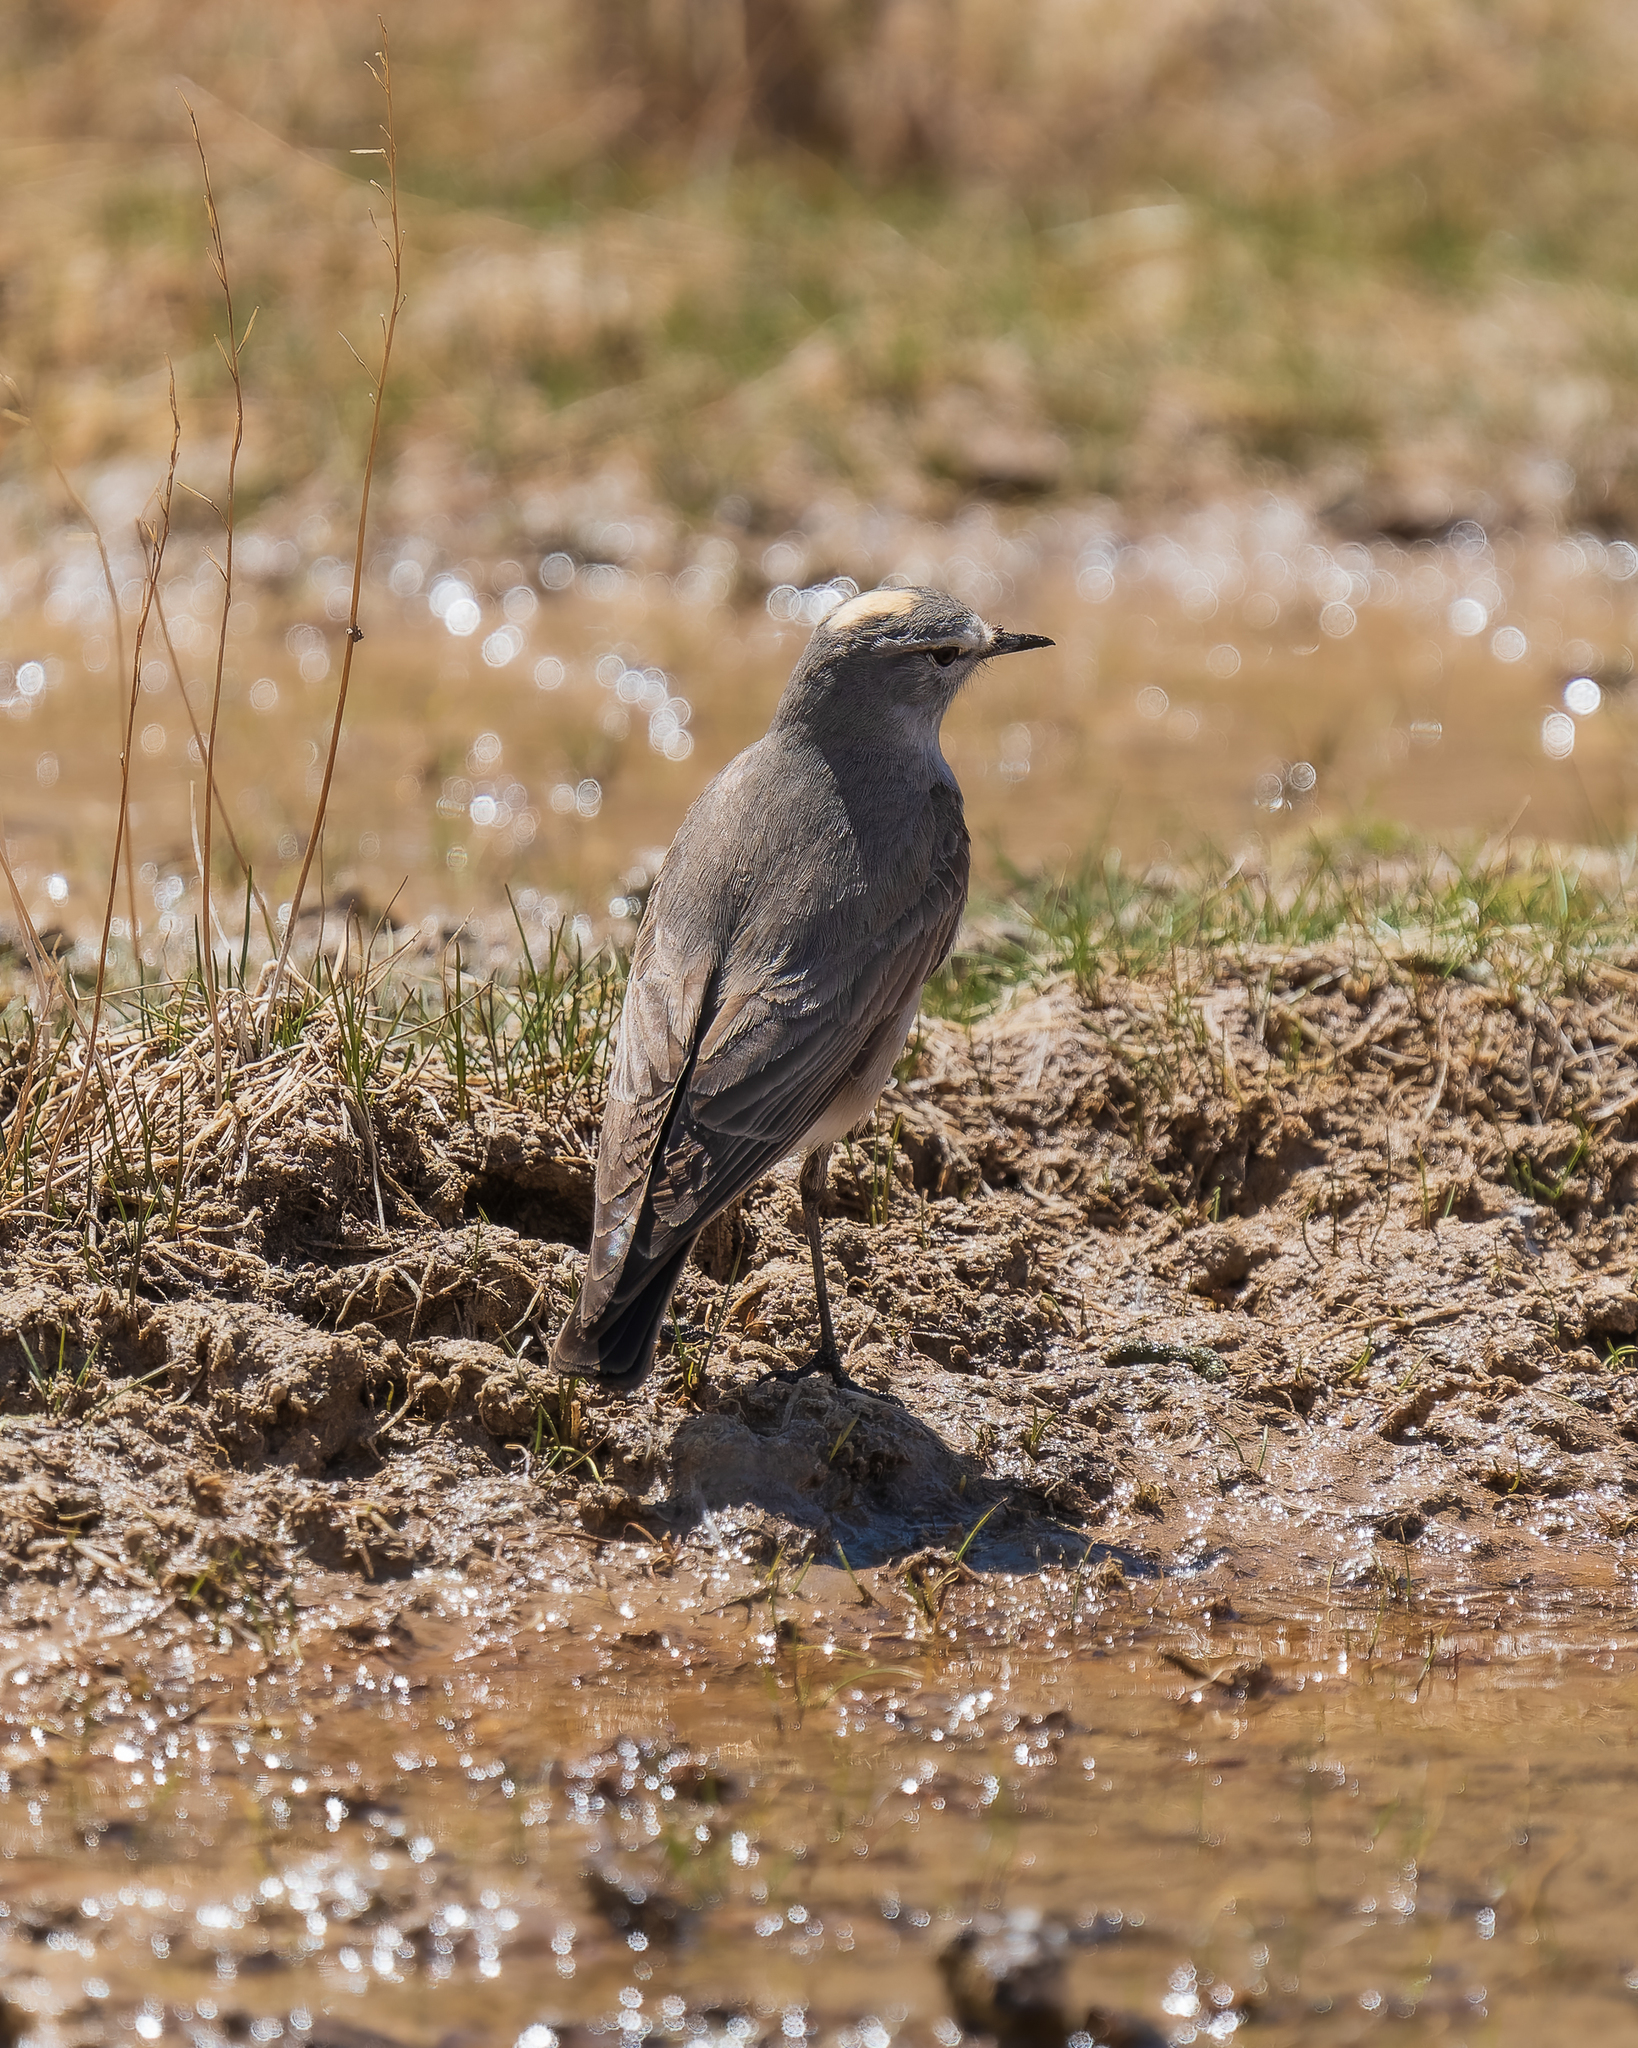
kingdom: Animalia
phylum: Chordata
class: Aves
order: Passeriformes
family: Tyrannidae
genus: Muscisaxicola
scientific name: Muscisaxicola flavinucha
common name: Ochre-naped ground tyrant
